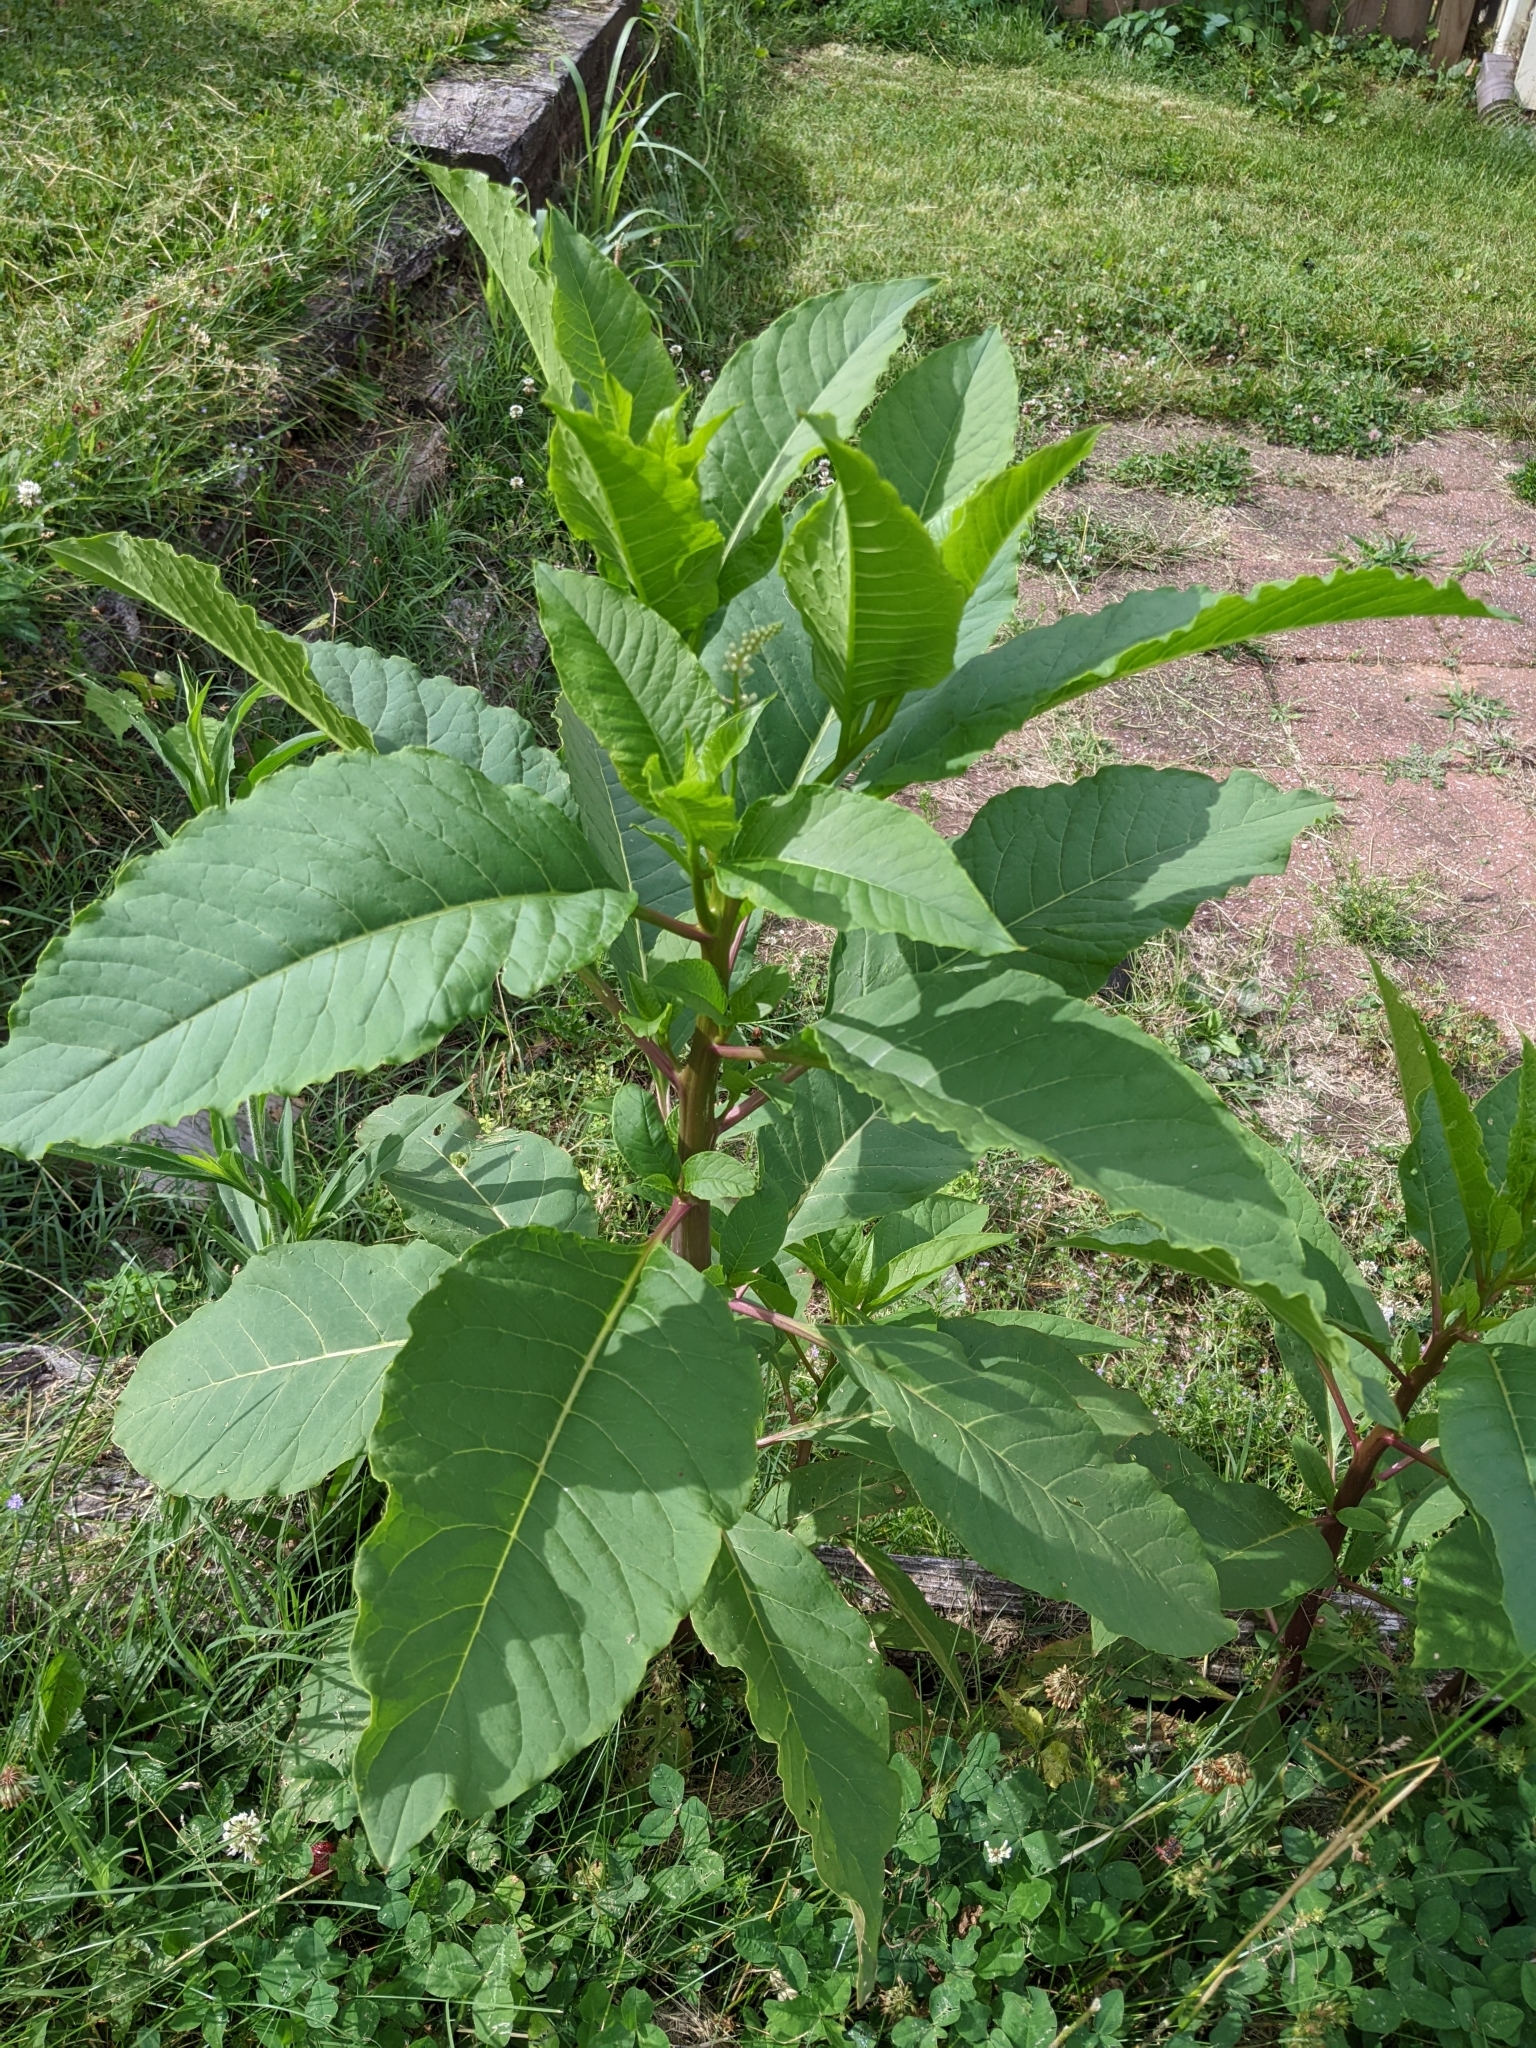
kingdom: Plantae
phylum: Tracheophyta
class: Magnoliopsida
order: Caryophyllales
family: Phytolaccaceae
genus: Phytolacca
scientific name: Phytolacca americana
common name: American pokeweed
